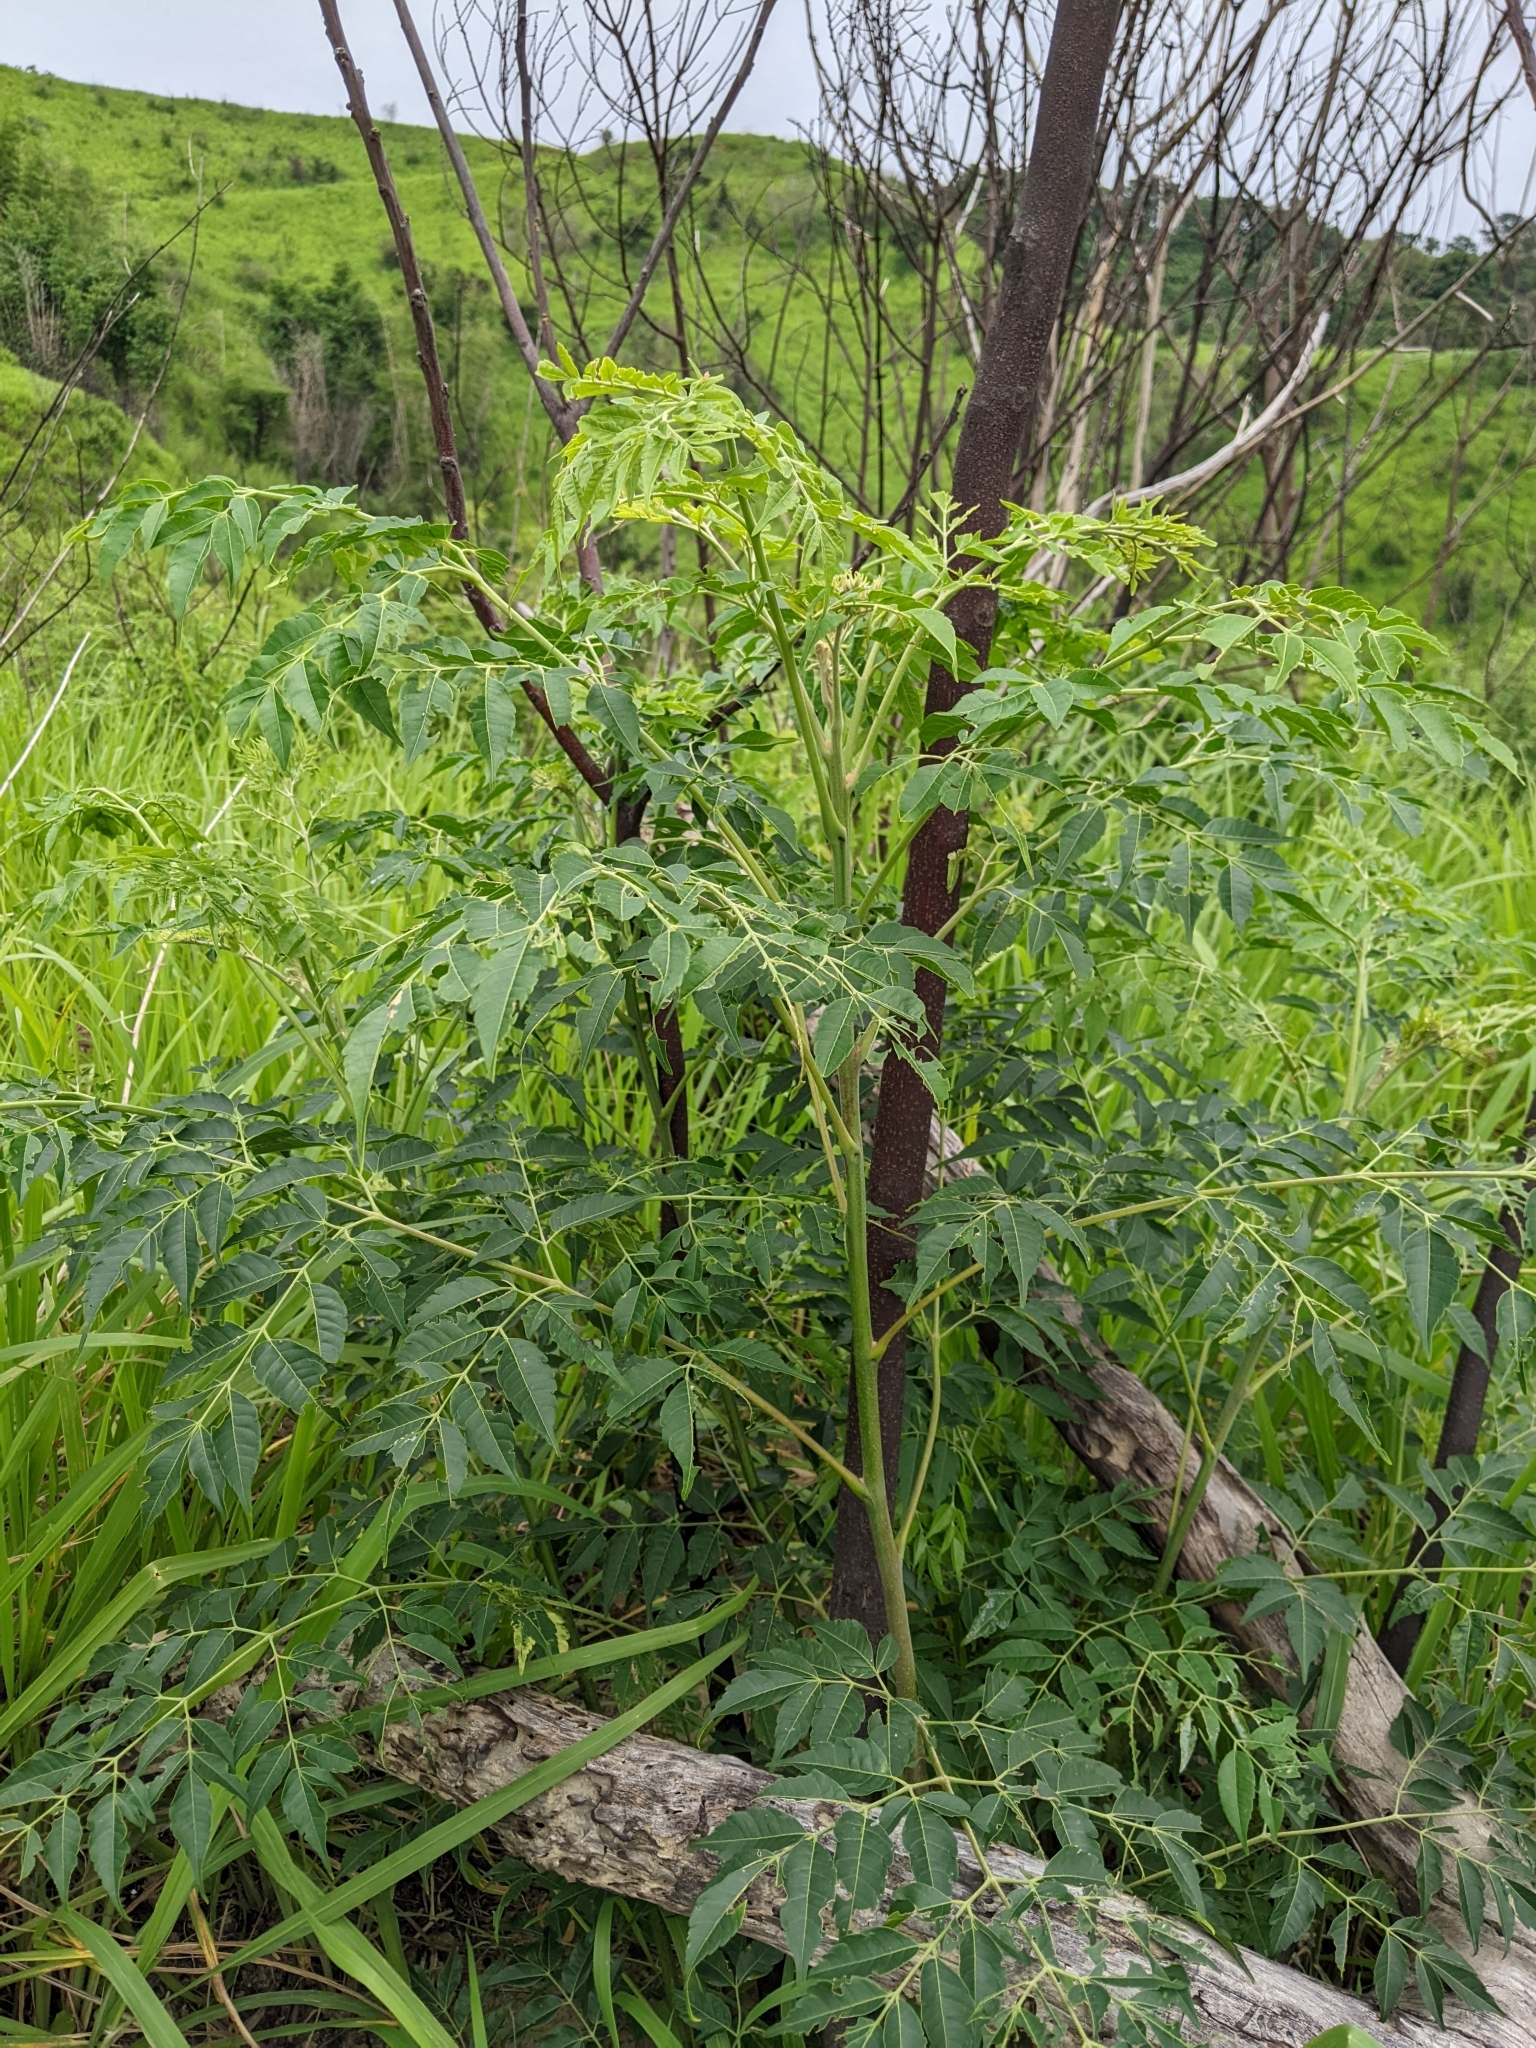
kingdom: Plantae
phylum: Tracheophyta
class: Magnoliopsida
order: Sapindales
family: Meliaceae
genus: Melia
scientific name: Melia azedarach
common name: Chinaberrytree
